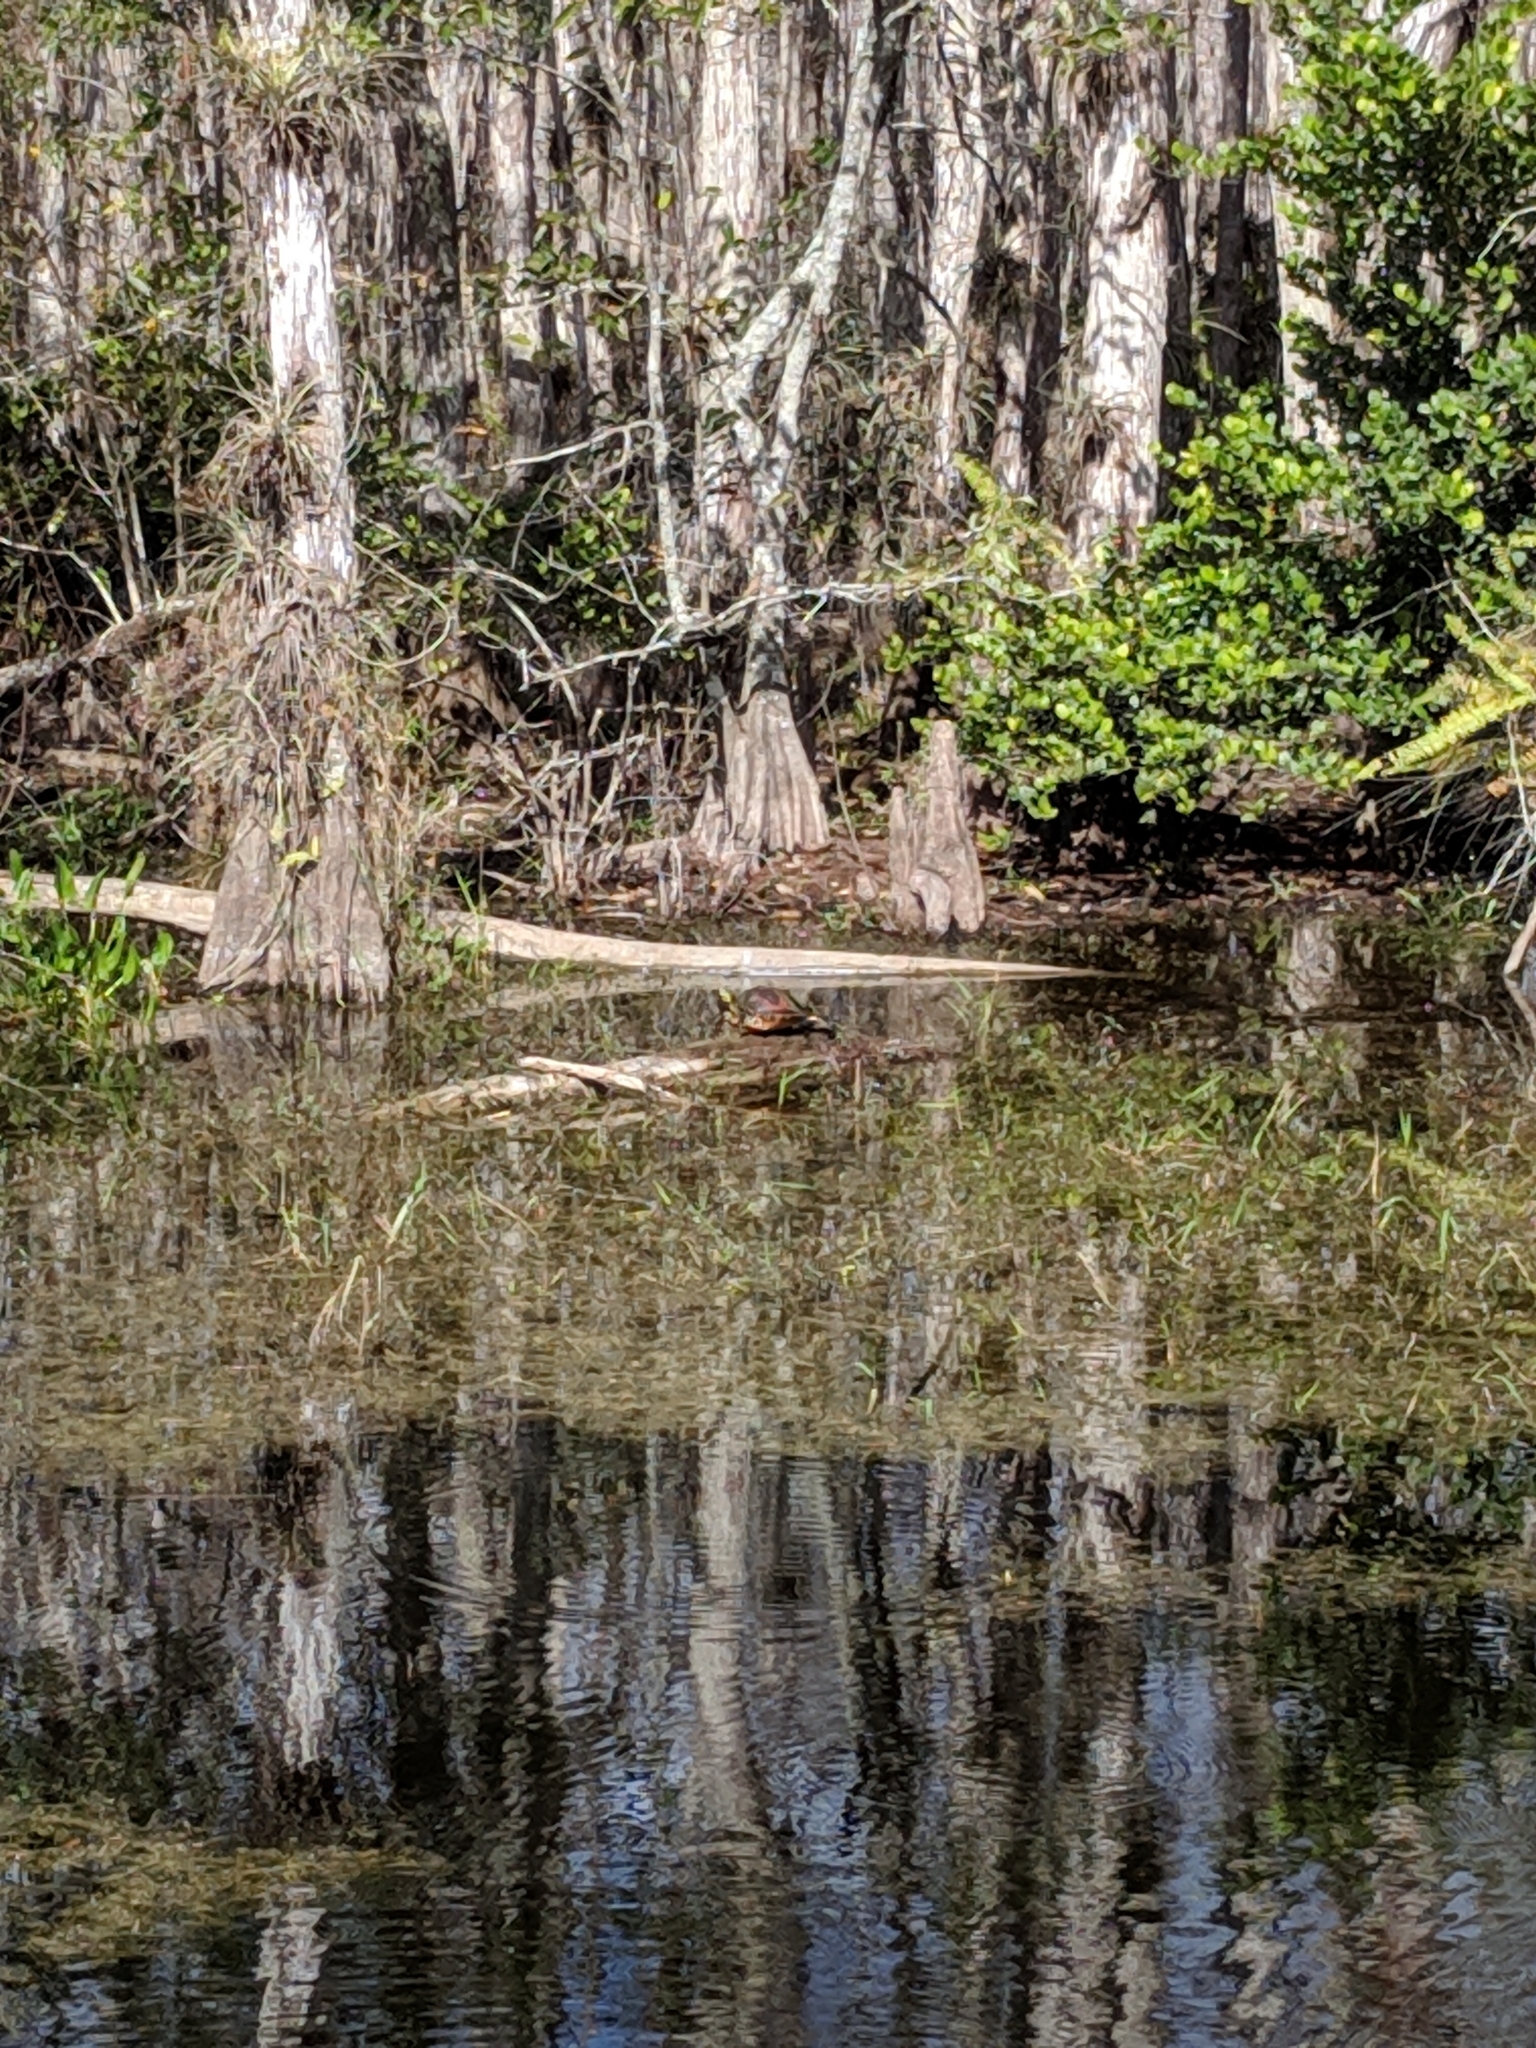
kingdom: Animalia
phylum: Chordata
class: Testudines
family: Emydidae
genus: Pseudemys
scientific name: Pseudemys nelsoni
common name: Florida red-bellied turtle
